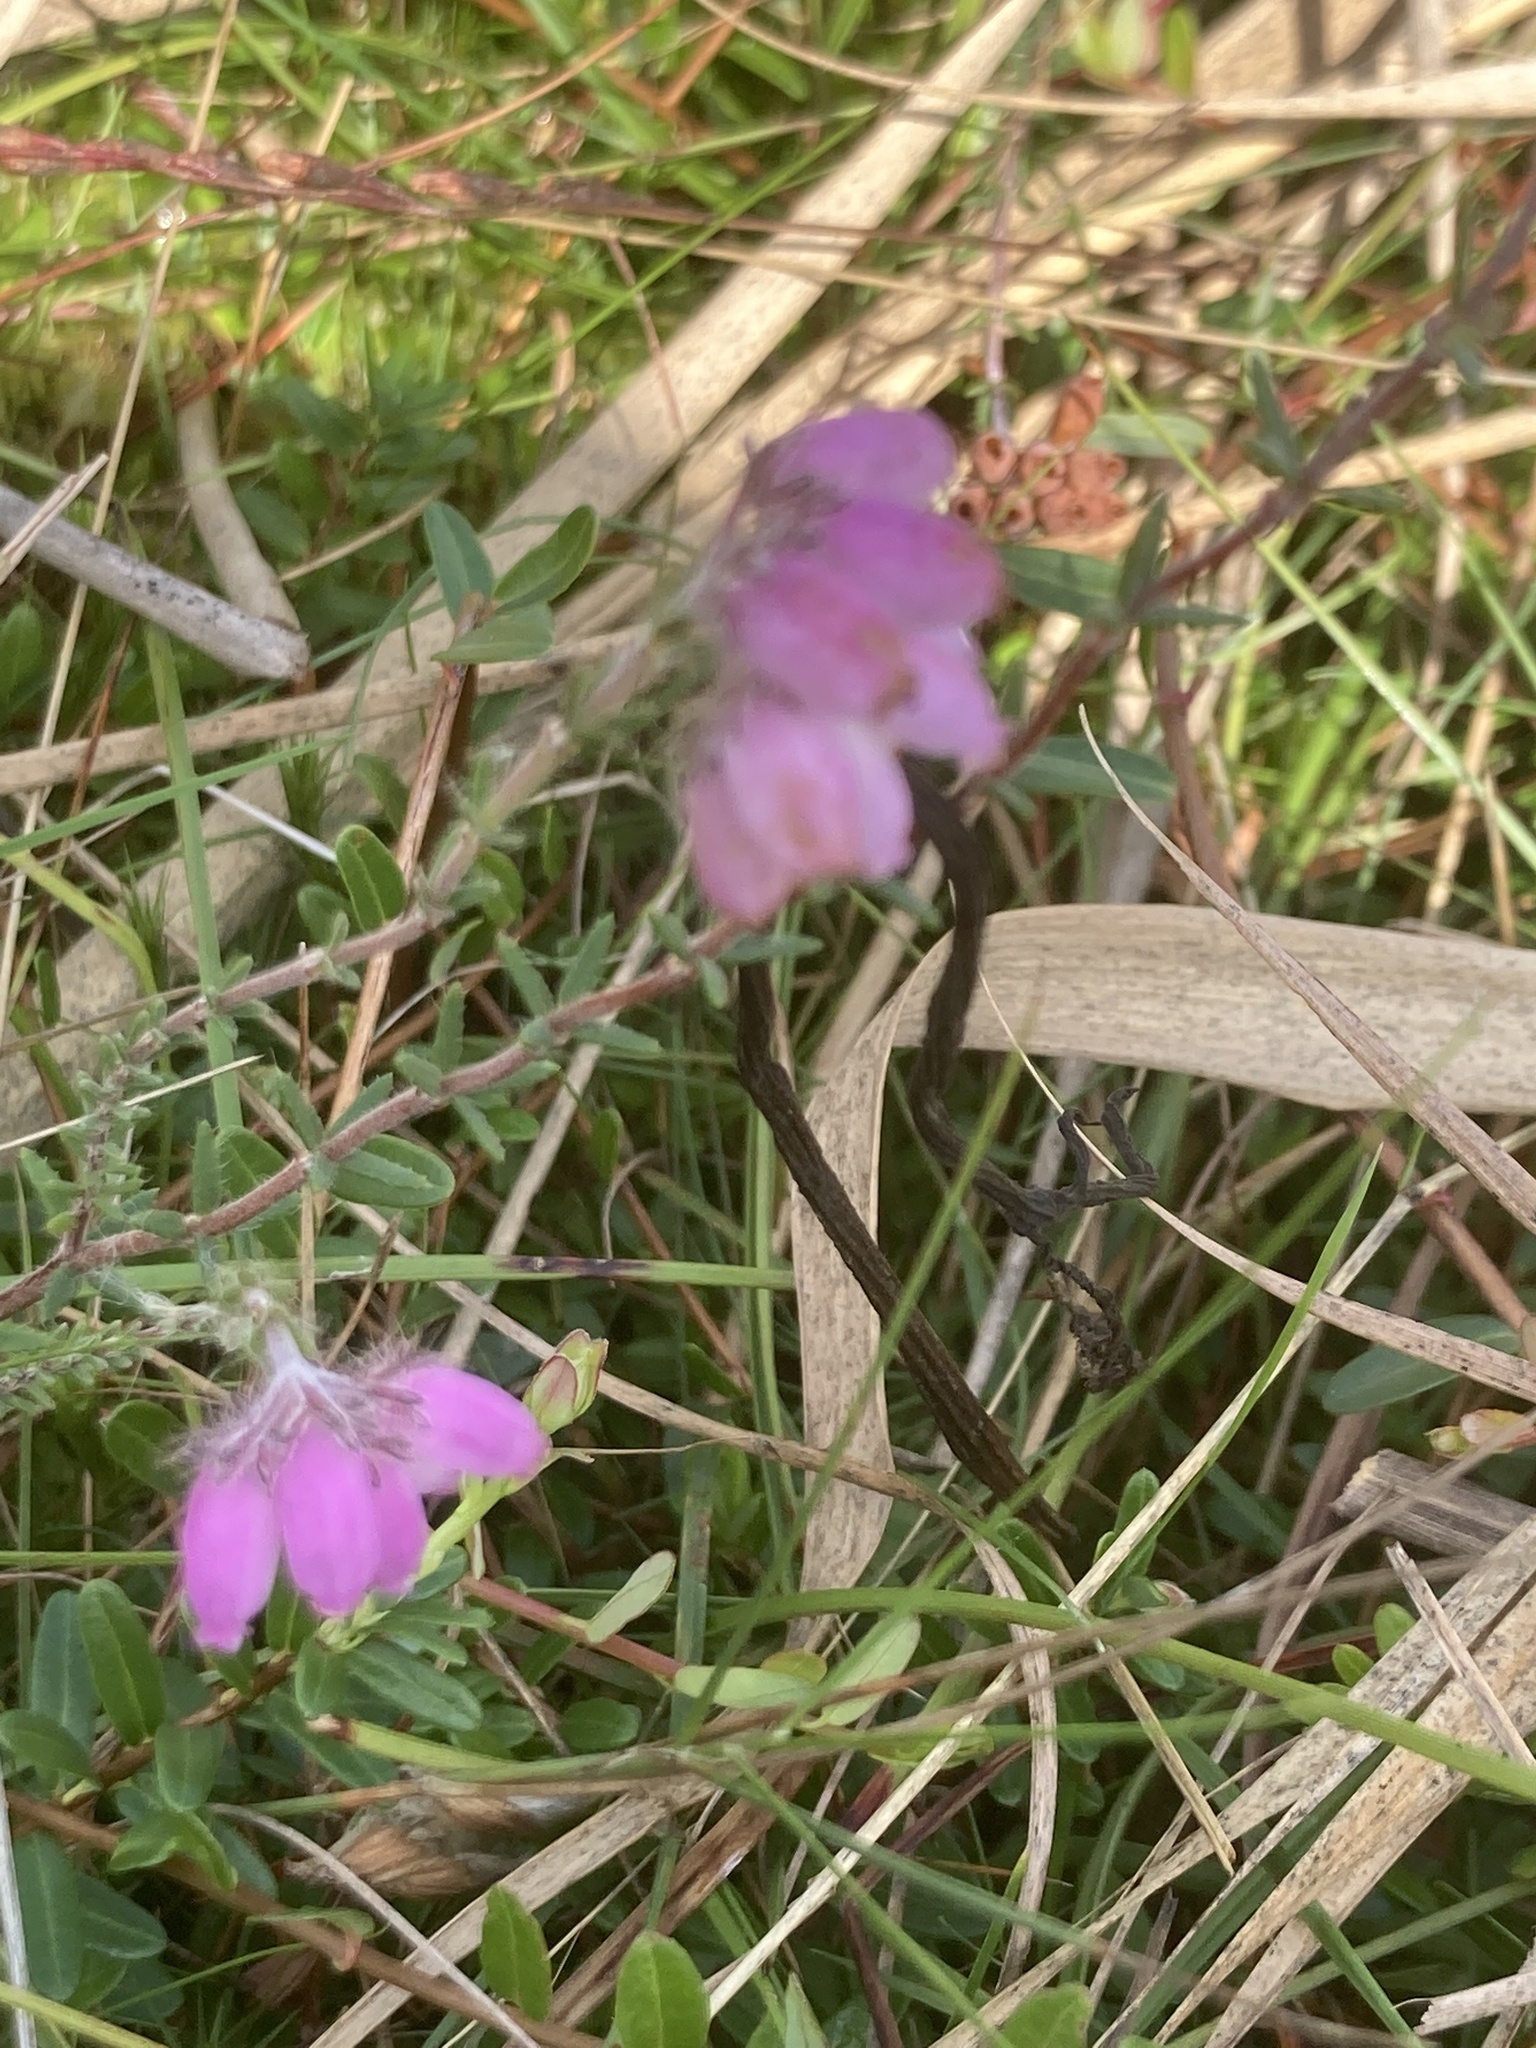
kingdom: Plantae
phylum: Tracheophyta
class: Magnoliopsida
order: Ericales
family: Ericaceae
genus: Erica
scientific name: Erica tetralix
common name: Cross-leaved heath
